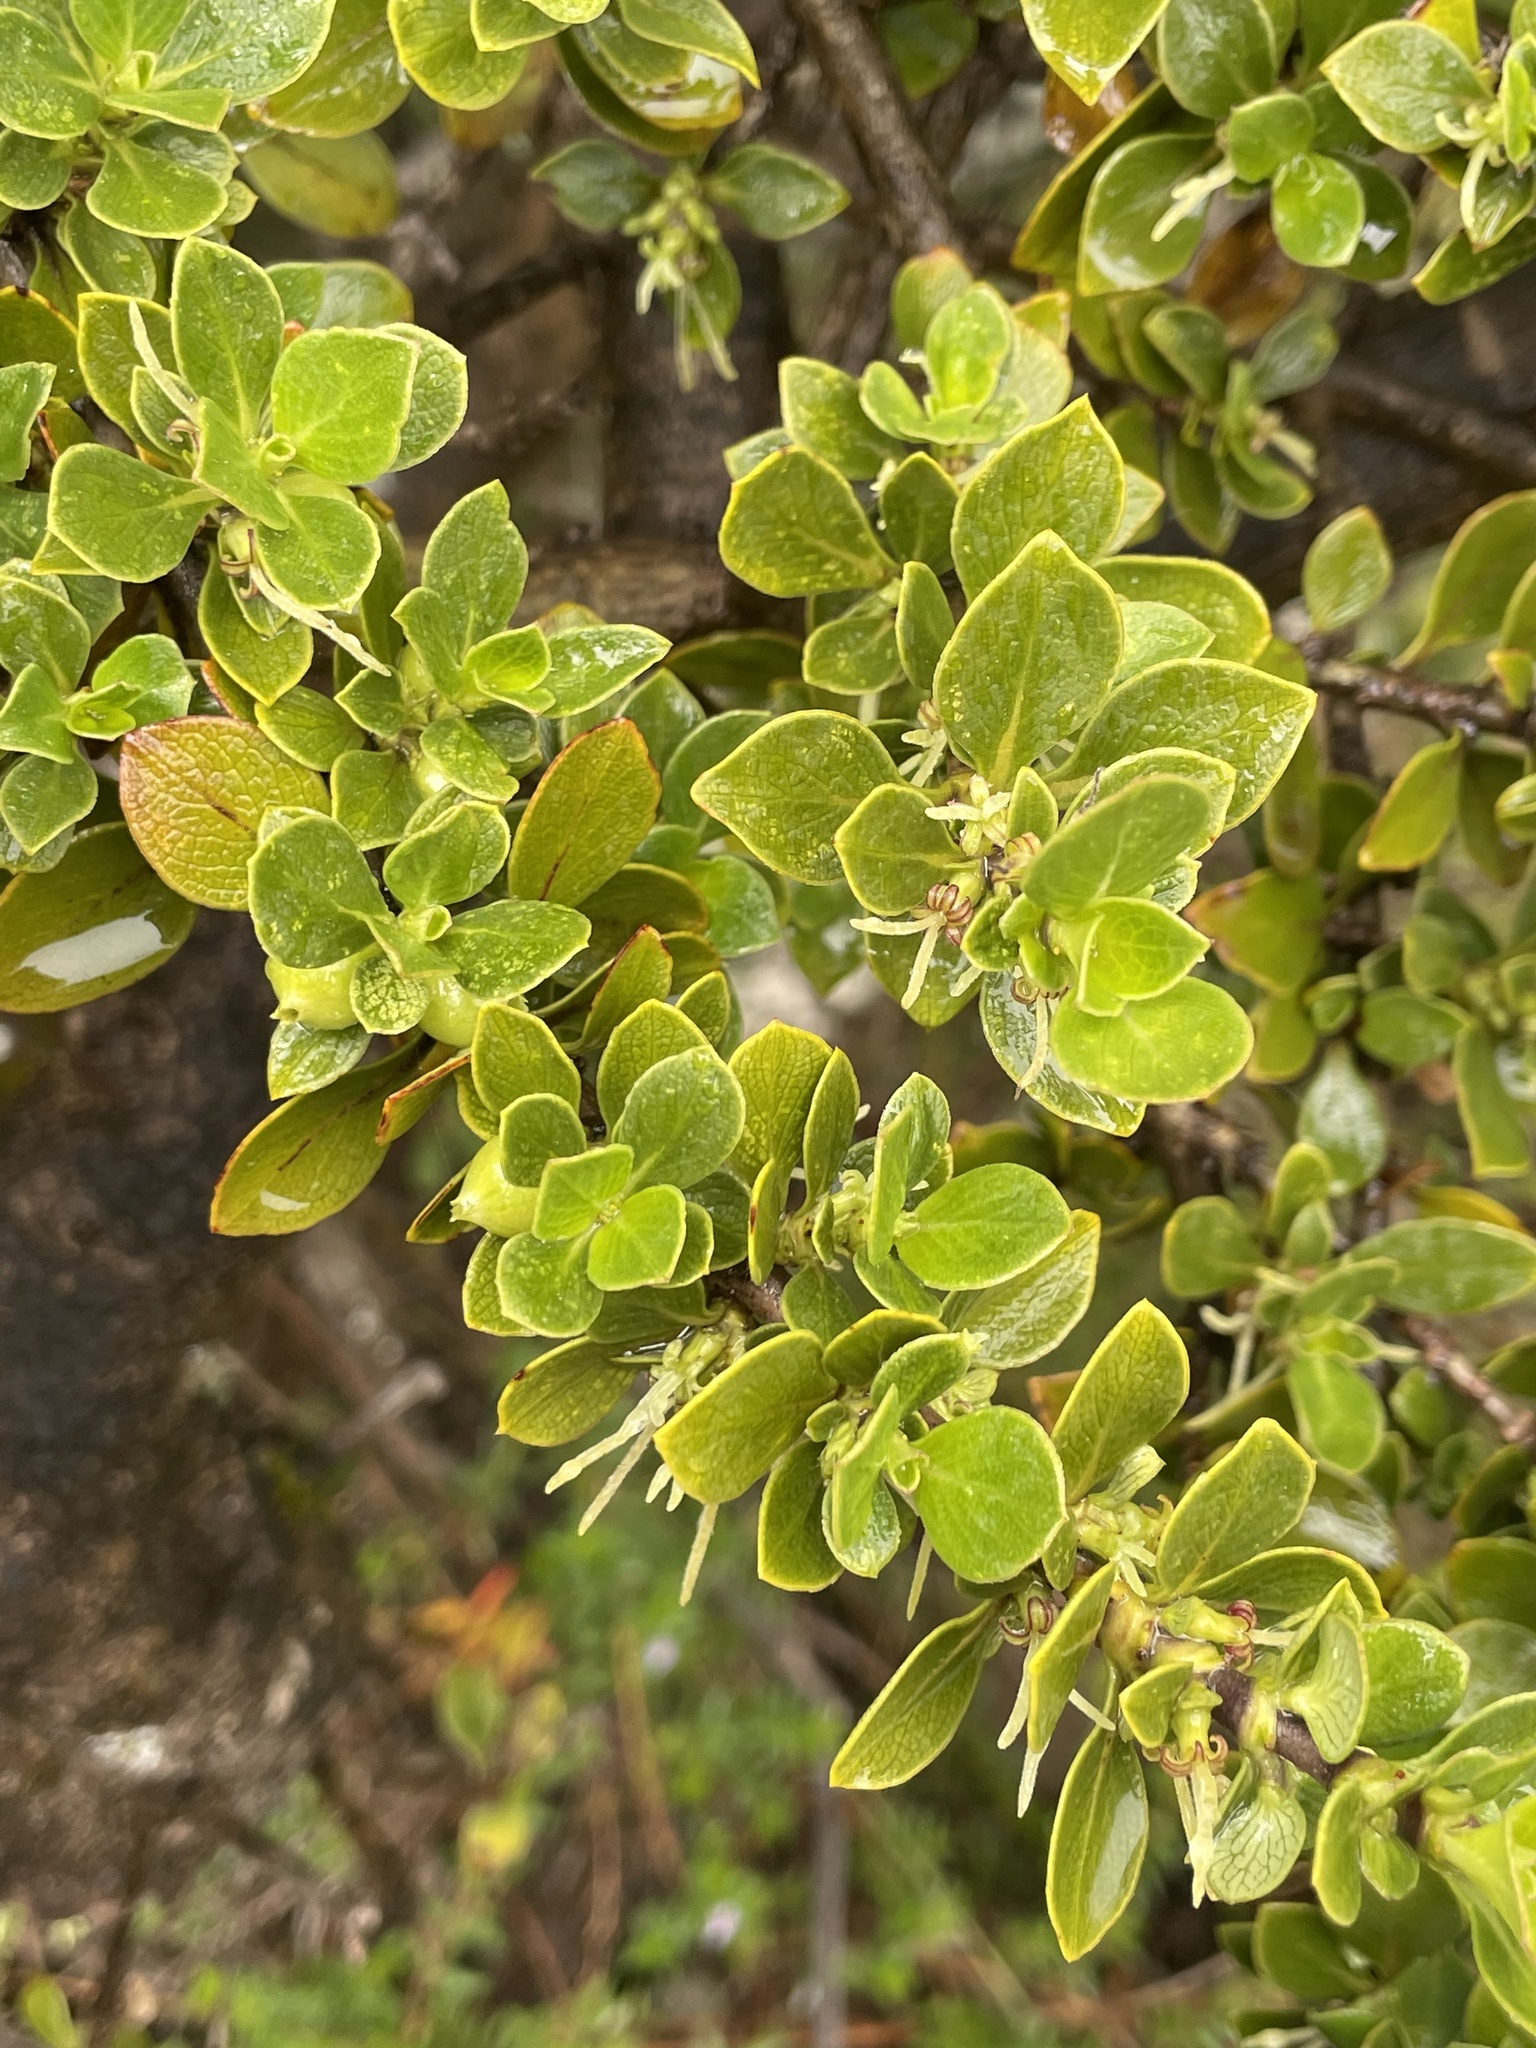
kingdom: Plantae
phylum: Tracheophyta
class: Magnoliopsida
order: Gentianales
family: Rubiaceae
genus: Coprosma
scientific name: Coprosma montana
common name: Alpine mirror plant
